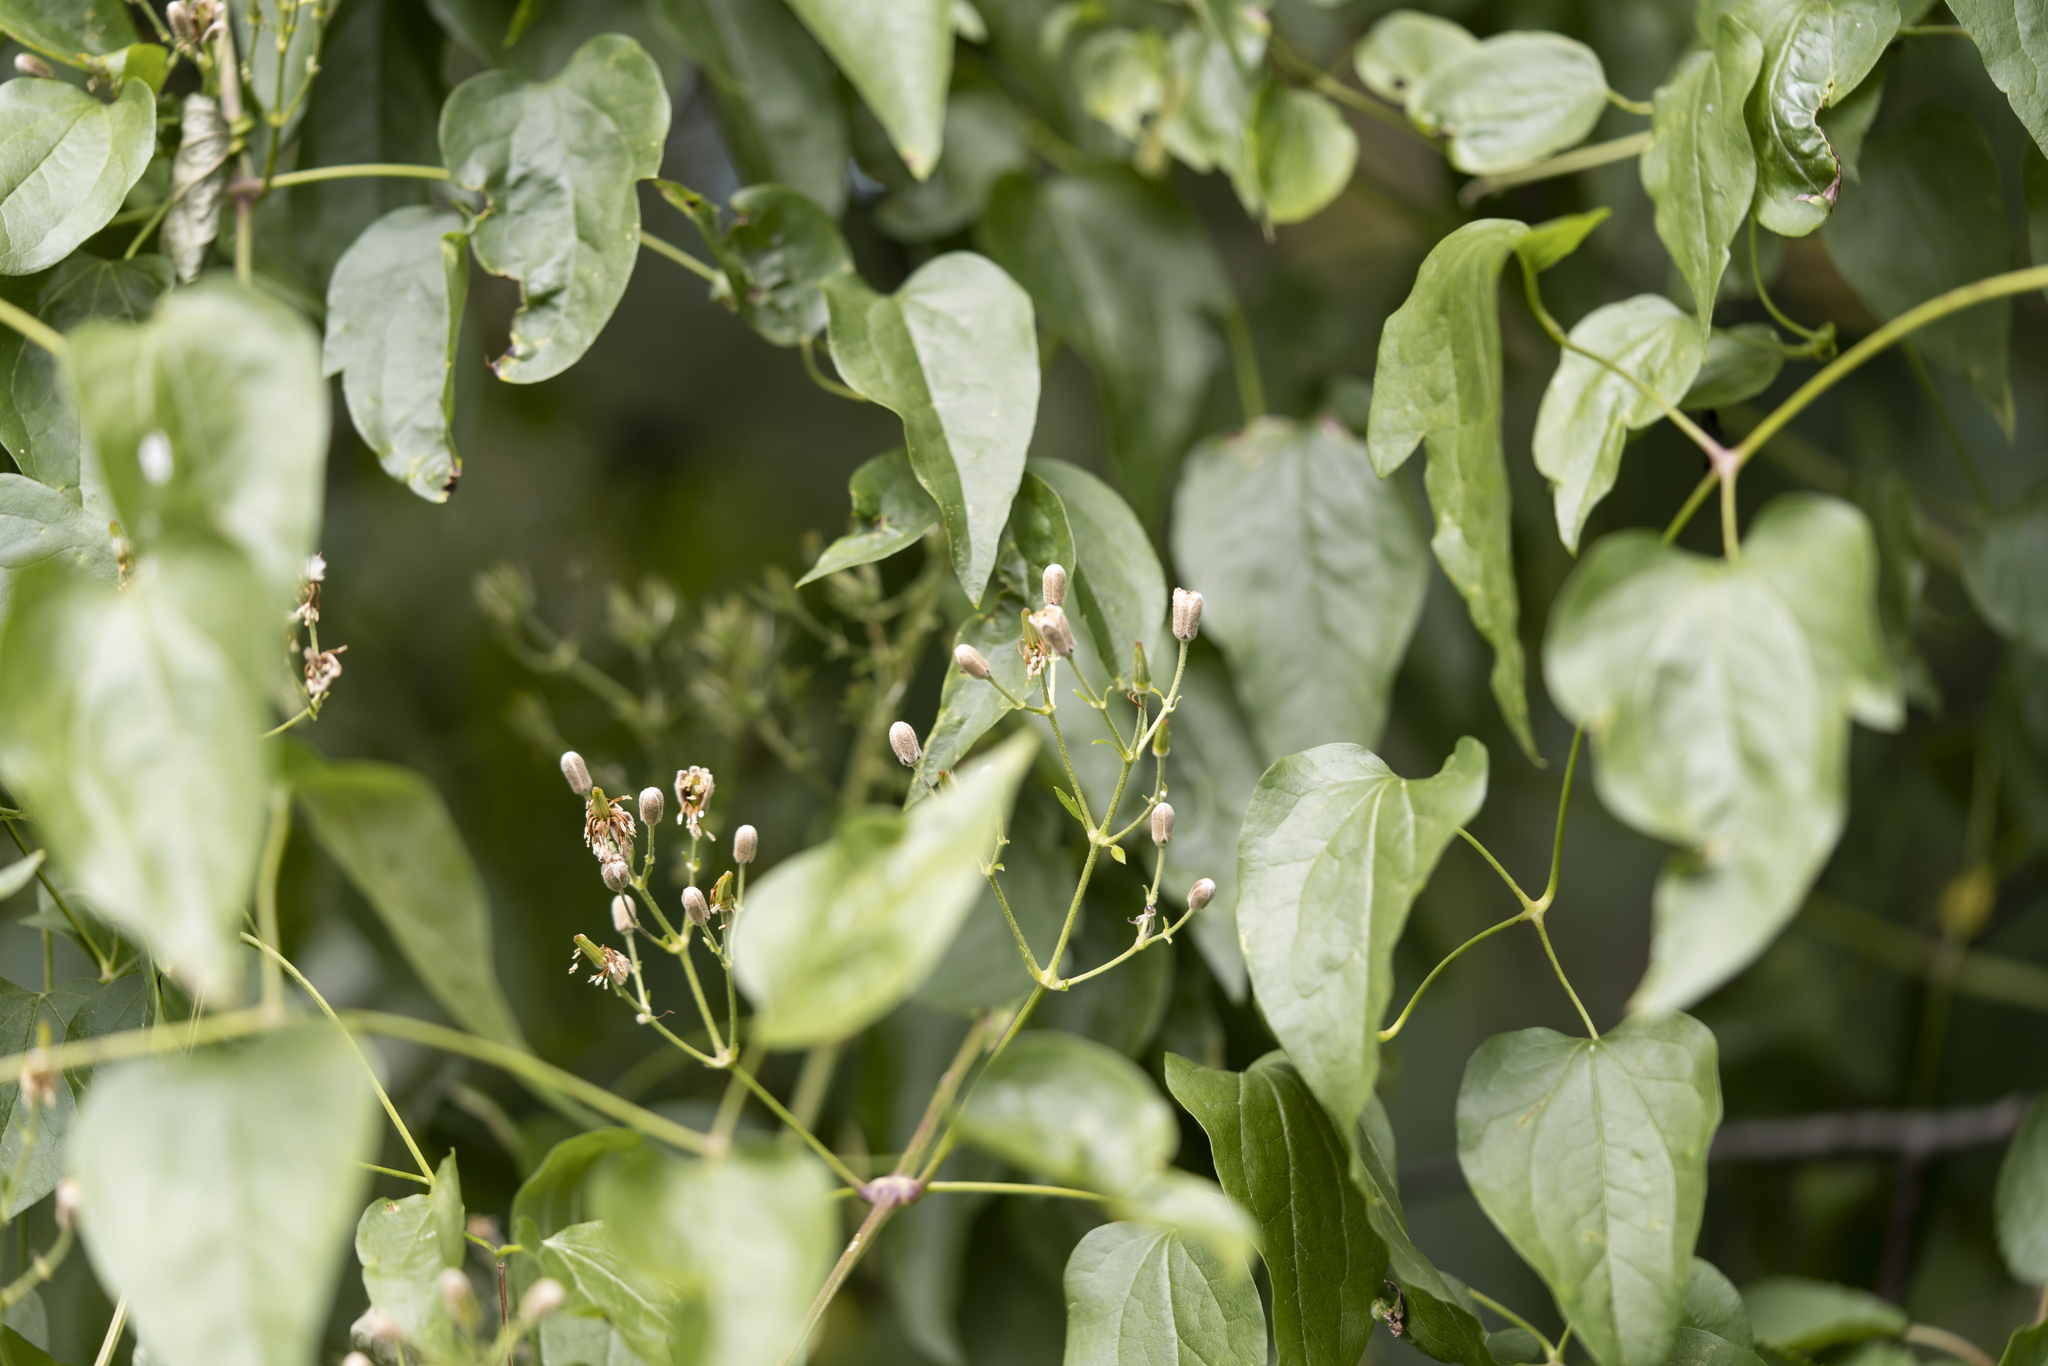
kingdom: Plantae
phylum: Tracheophyta
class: Magnoliopsida
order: Ranunculales
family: Ranunculaceae
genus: Clematis
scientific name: Clematis vitalba
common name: Evergreen clematis
